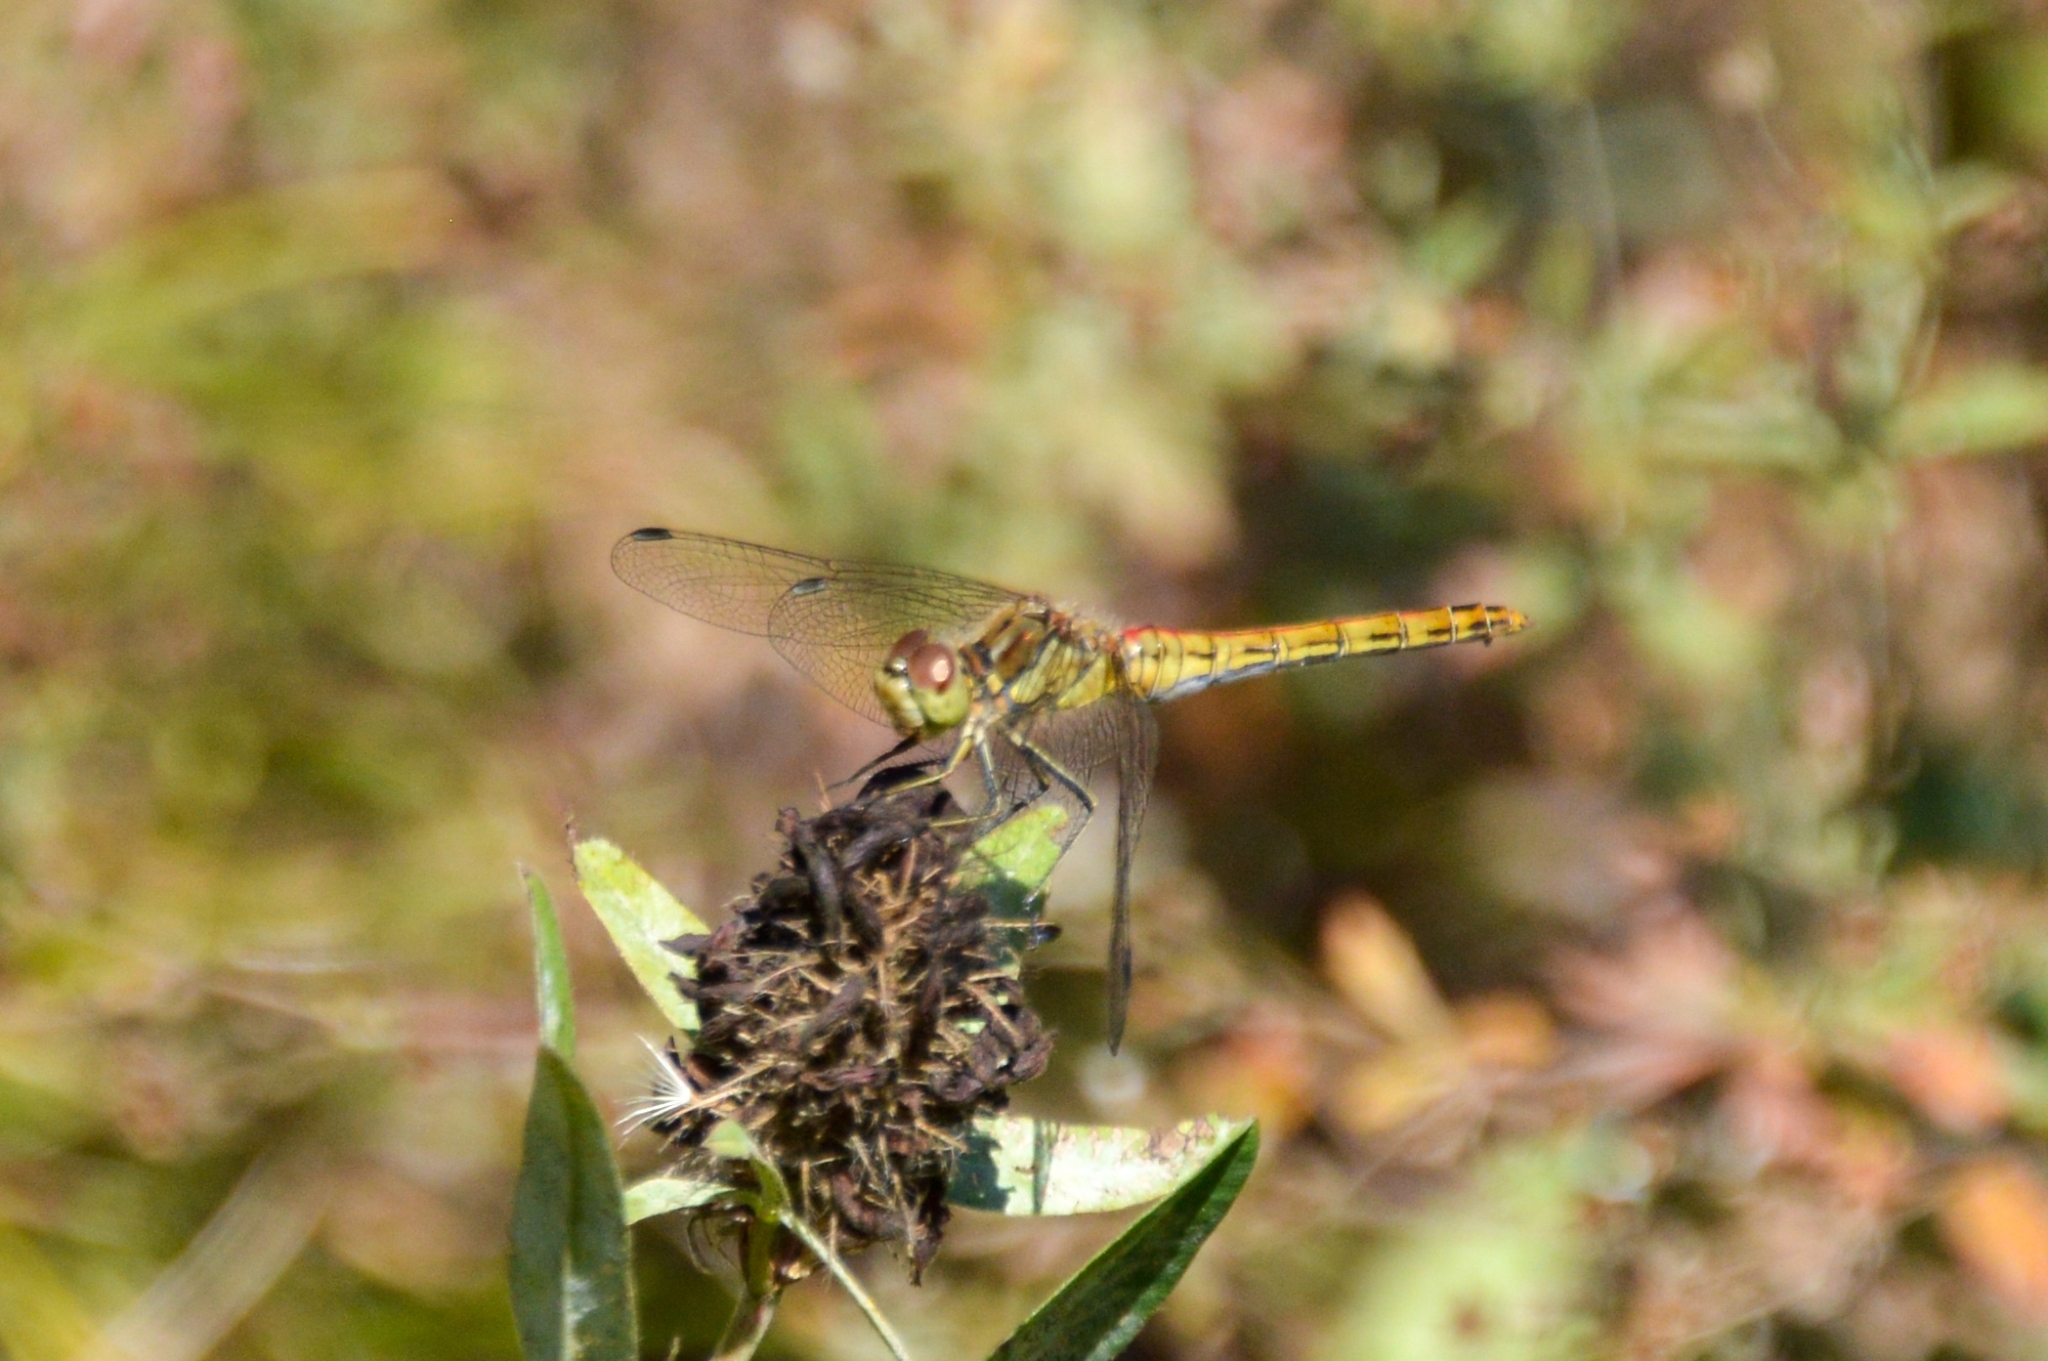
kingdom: Animalia
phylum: Arthropoda
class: Insecta
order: Odonata
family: Libellulidae
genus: Sympetrum
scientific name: Sympetrum vulgatum
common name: Vagrant darter
